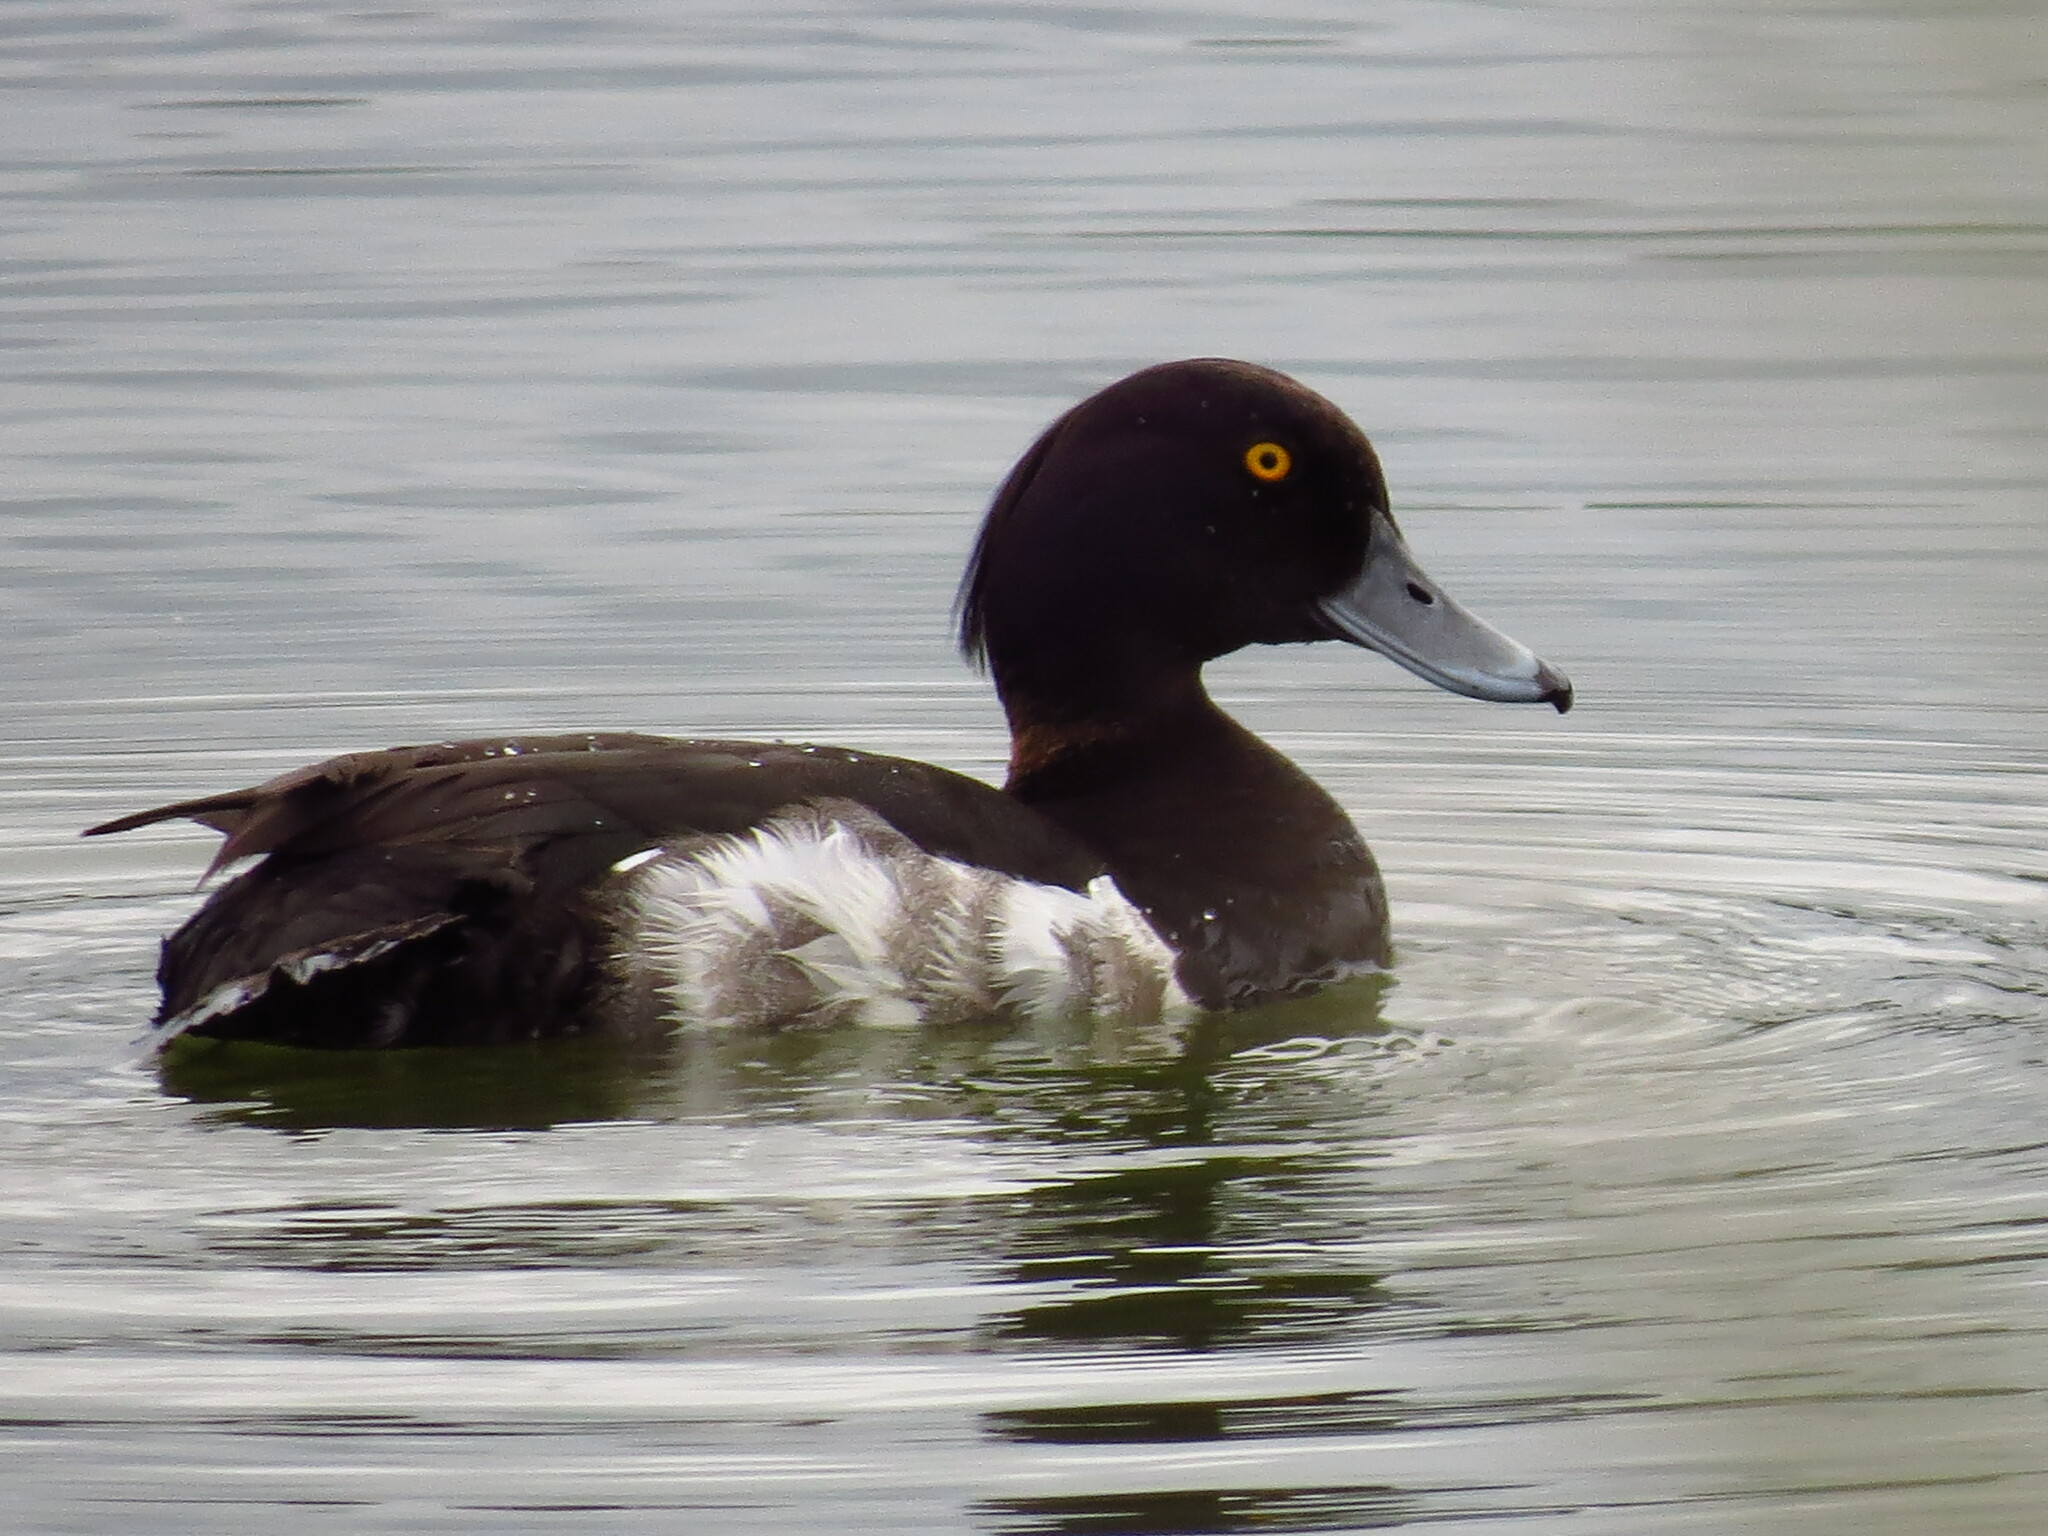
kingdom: Animalia
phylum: Chordata
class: Aves
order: Anseriformes
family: Anatidae
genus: Aythya
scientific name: Aythya fuligula
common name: Tufted duck
